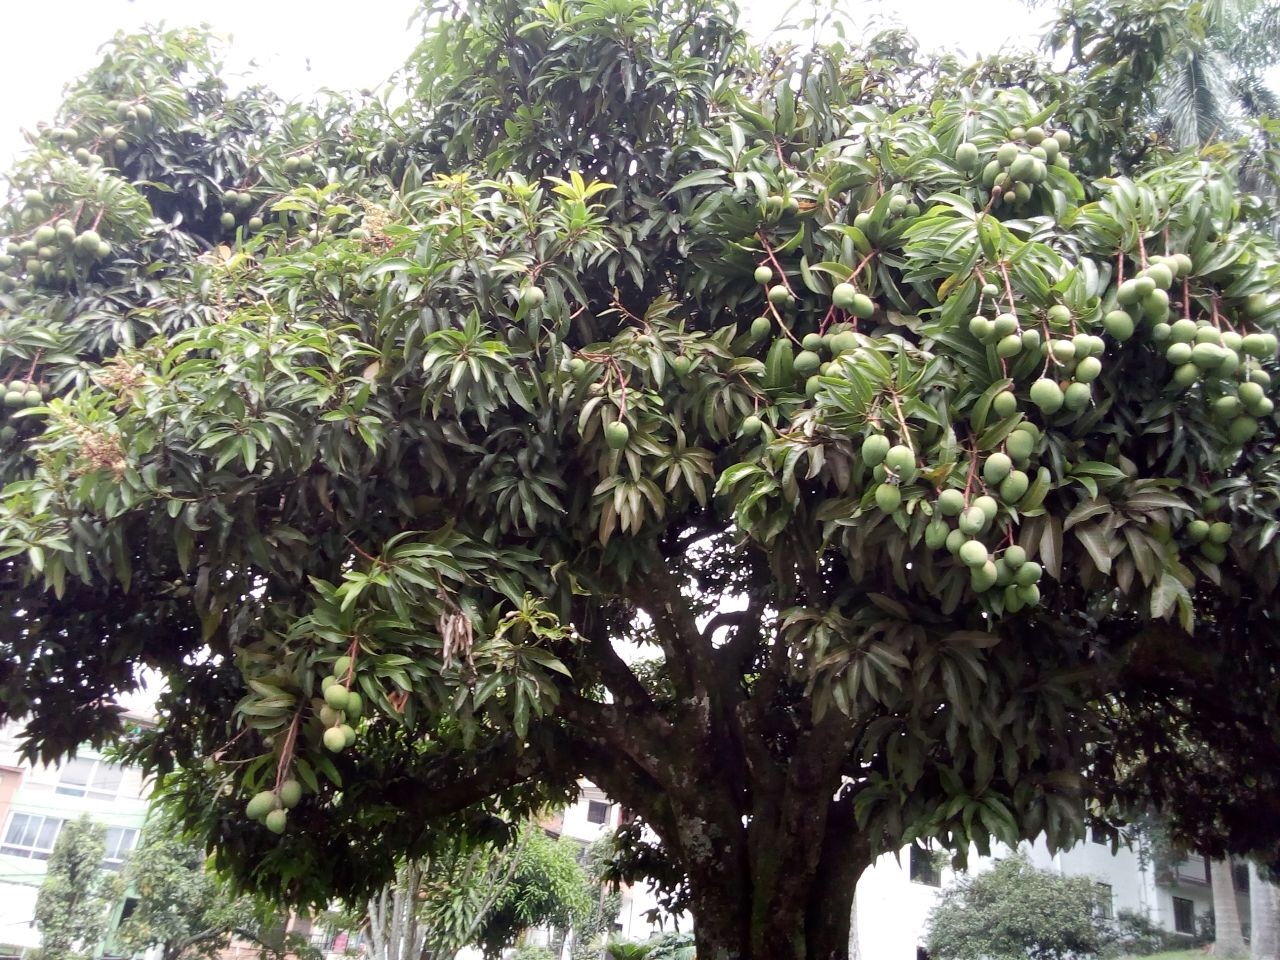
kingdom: Plantae
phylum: Tracheophyta
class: Magnoliopsida
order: Sapindales
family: Anacardiaceae
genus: Mangifera
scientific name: Mangifera indica
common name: Mango
